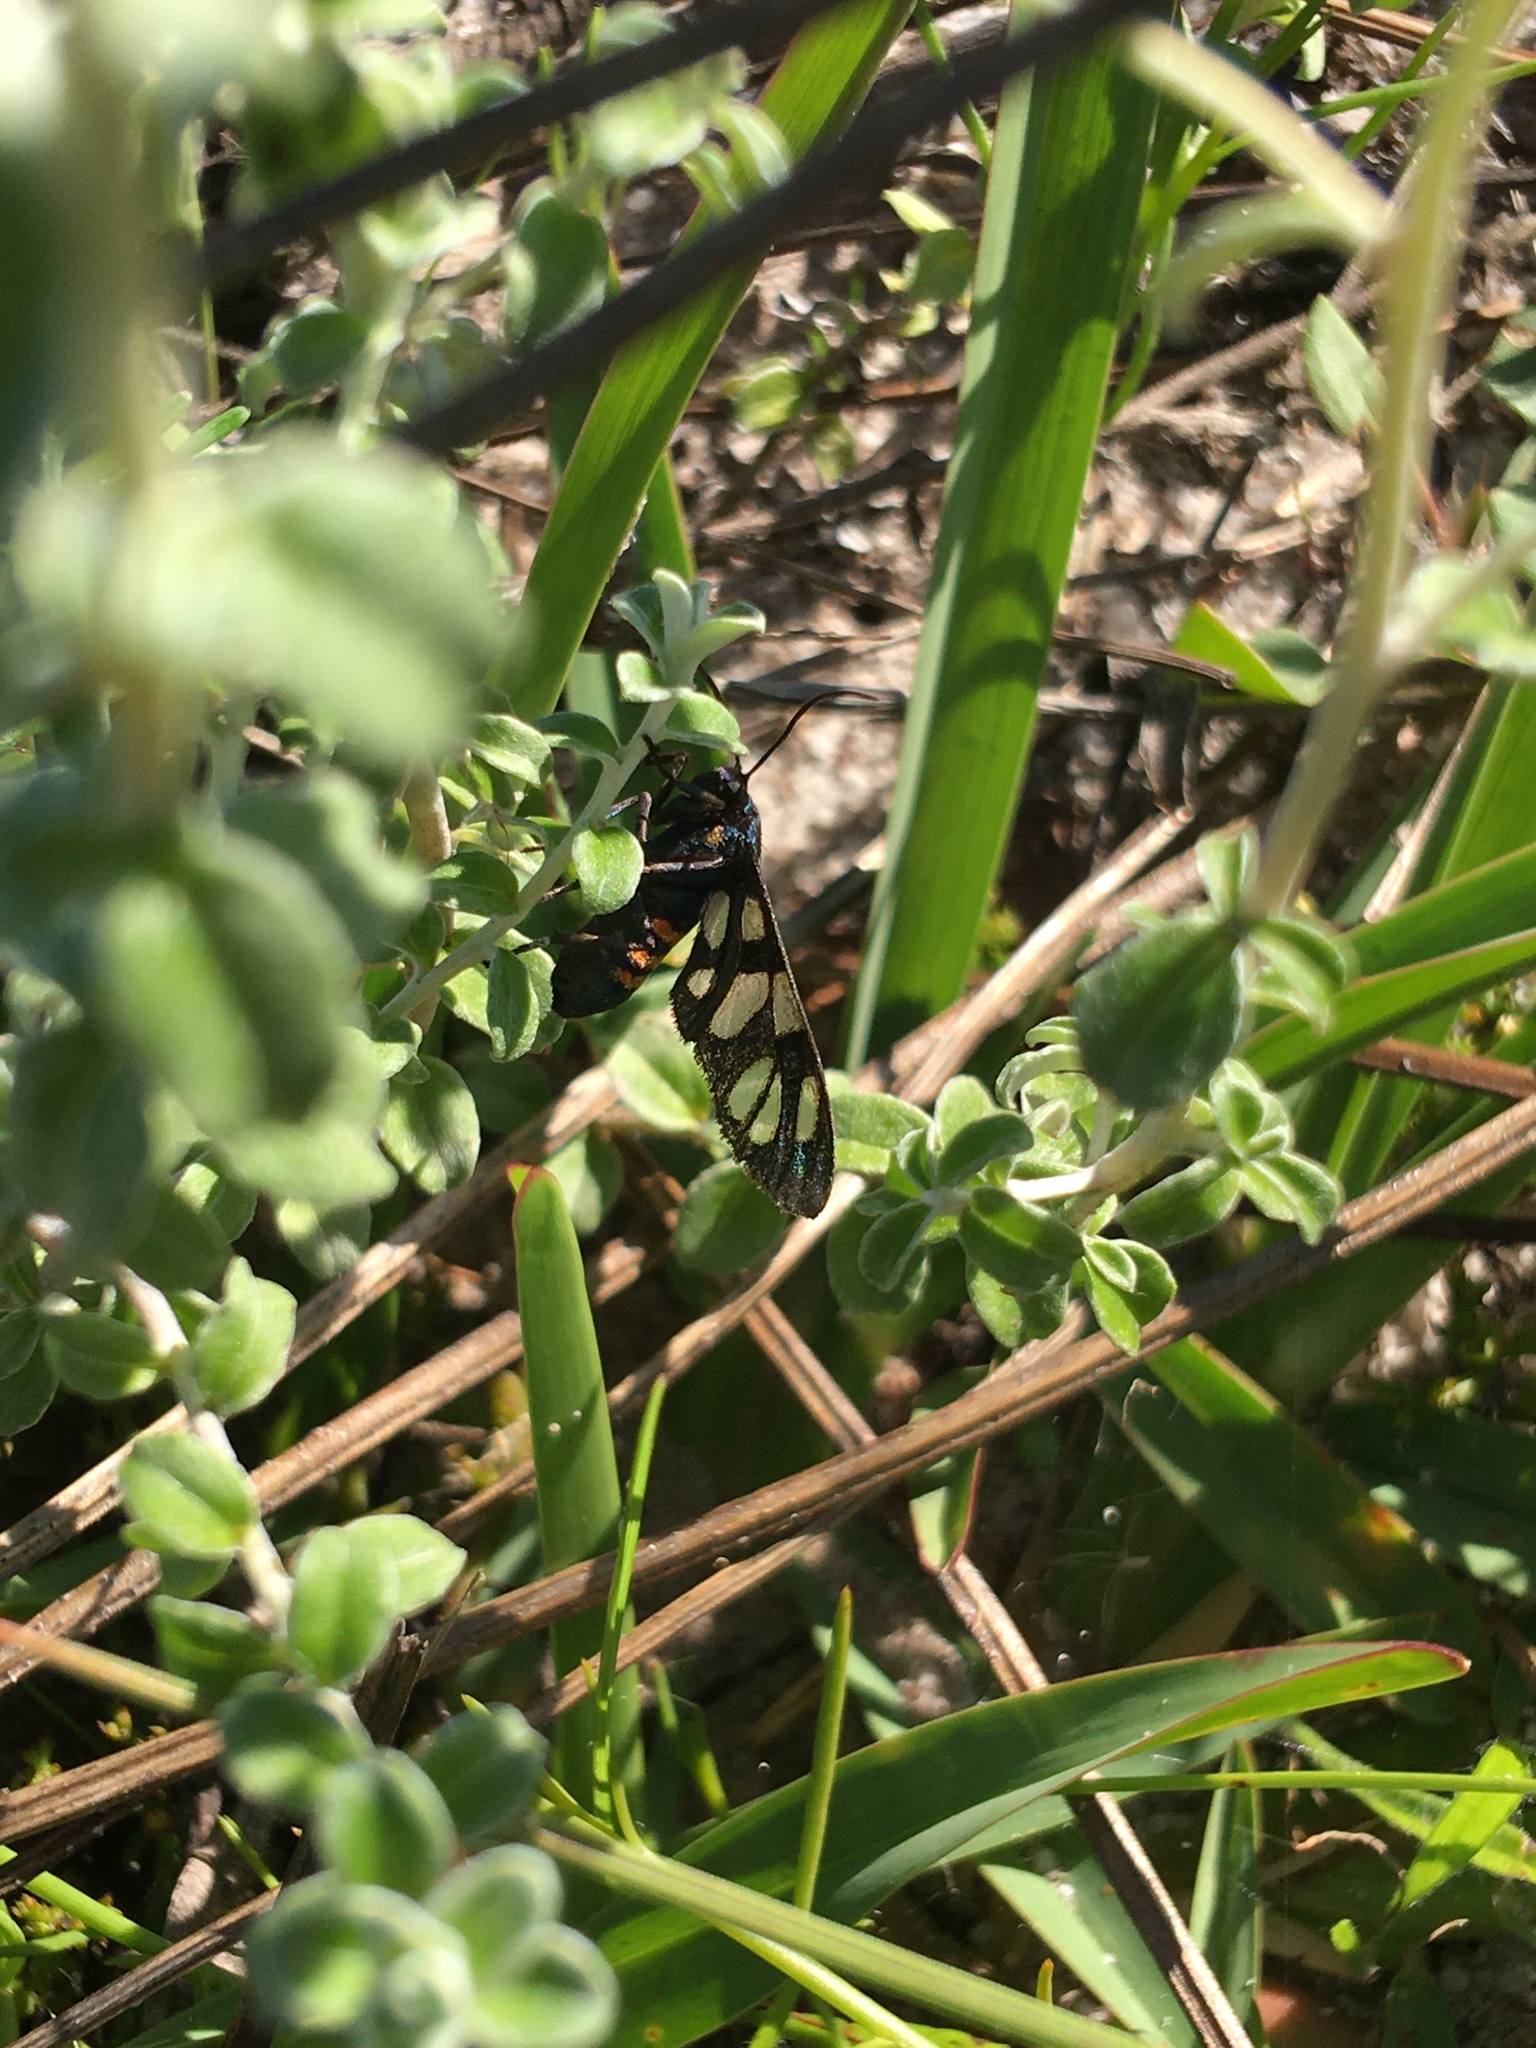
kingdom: Animalia
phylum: Arthropoda
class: Insecta
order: Lepidoptera
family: Erebidae
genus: Amata
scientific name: Amata cerbera
